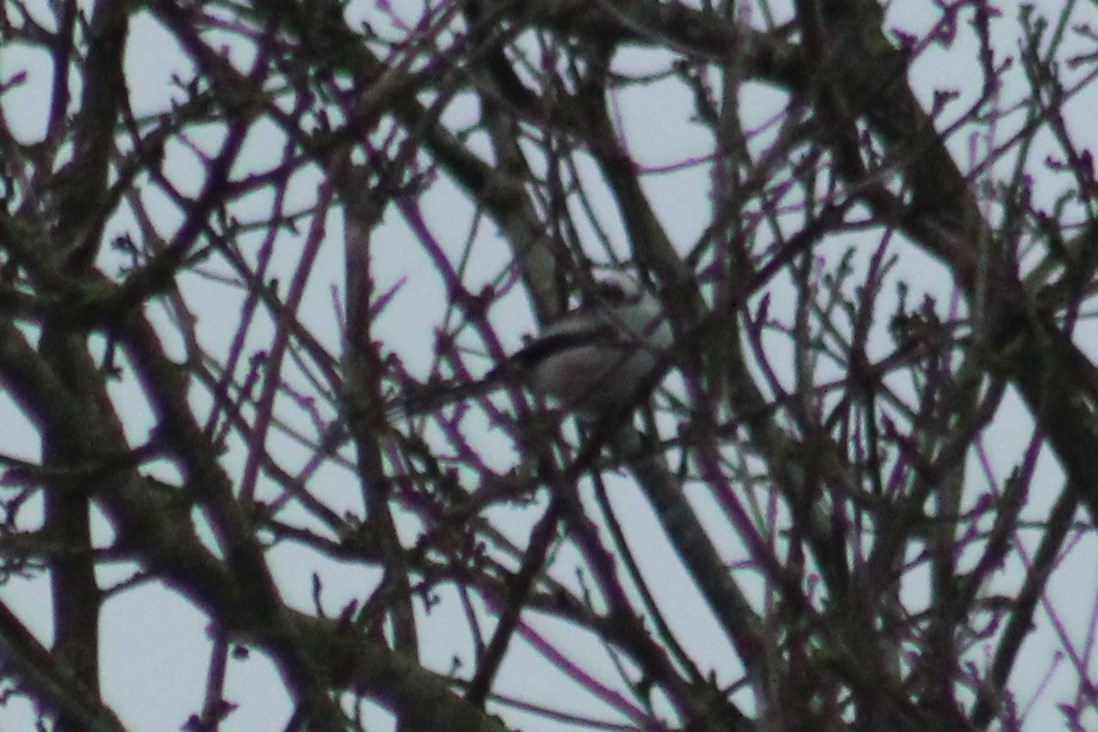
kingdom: Animalia
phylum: Chordata
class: Aves
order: Passeriformes
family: Aegithalidae
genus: Aegithalos
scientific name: Aegithalos caudatus
